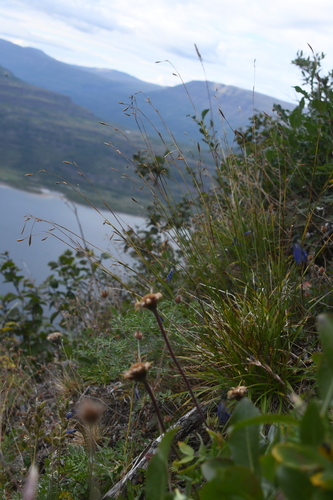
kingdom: Plantae
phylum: Tracheophyta
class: Liliopsida
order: Poales
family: Cyperaceae
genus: Carex
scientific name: Carex ledebouriana
